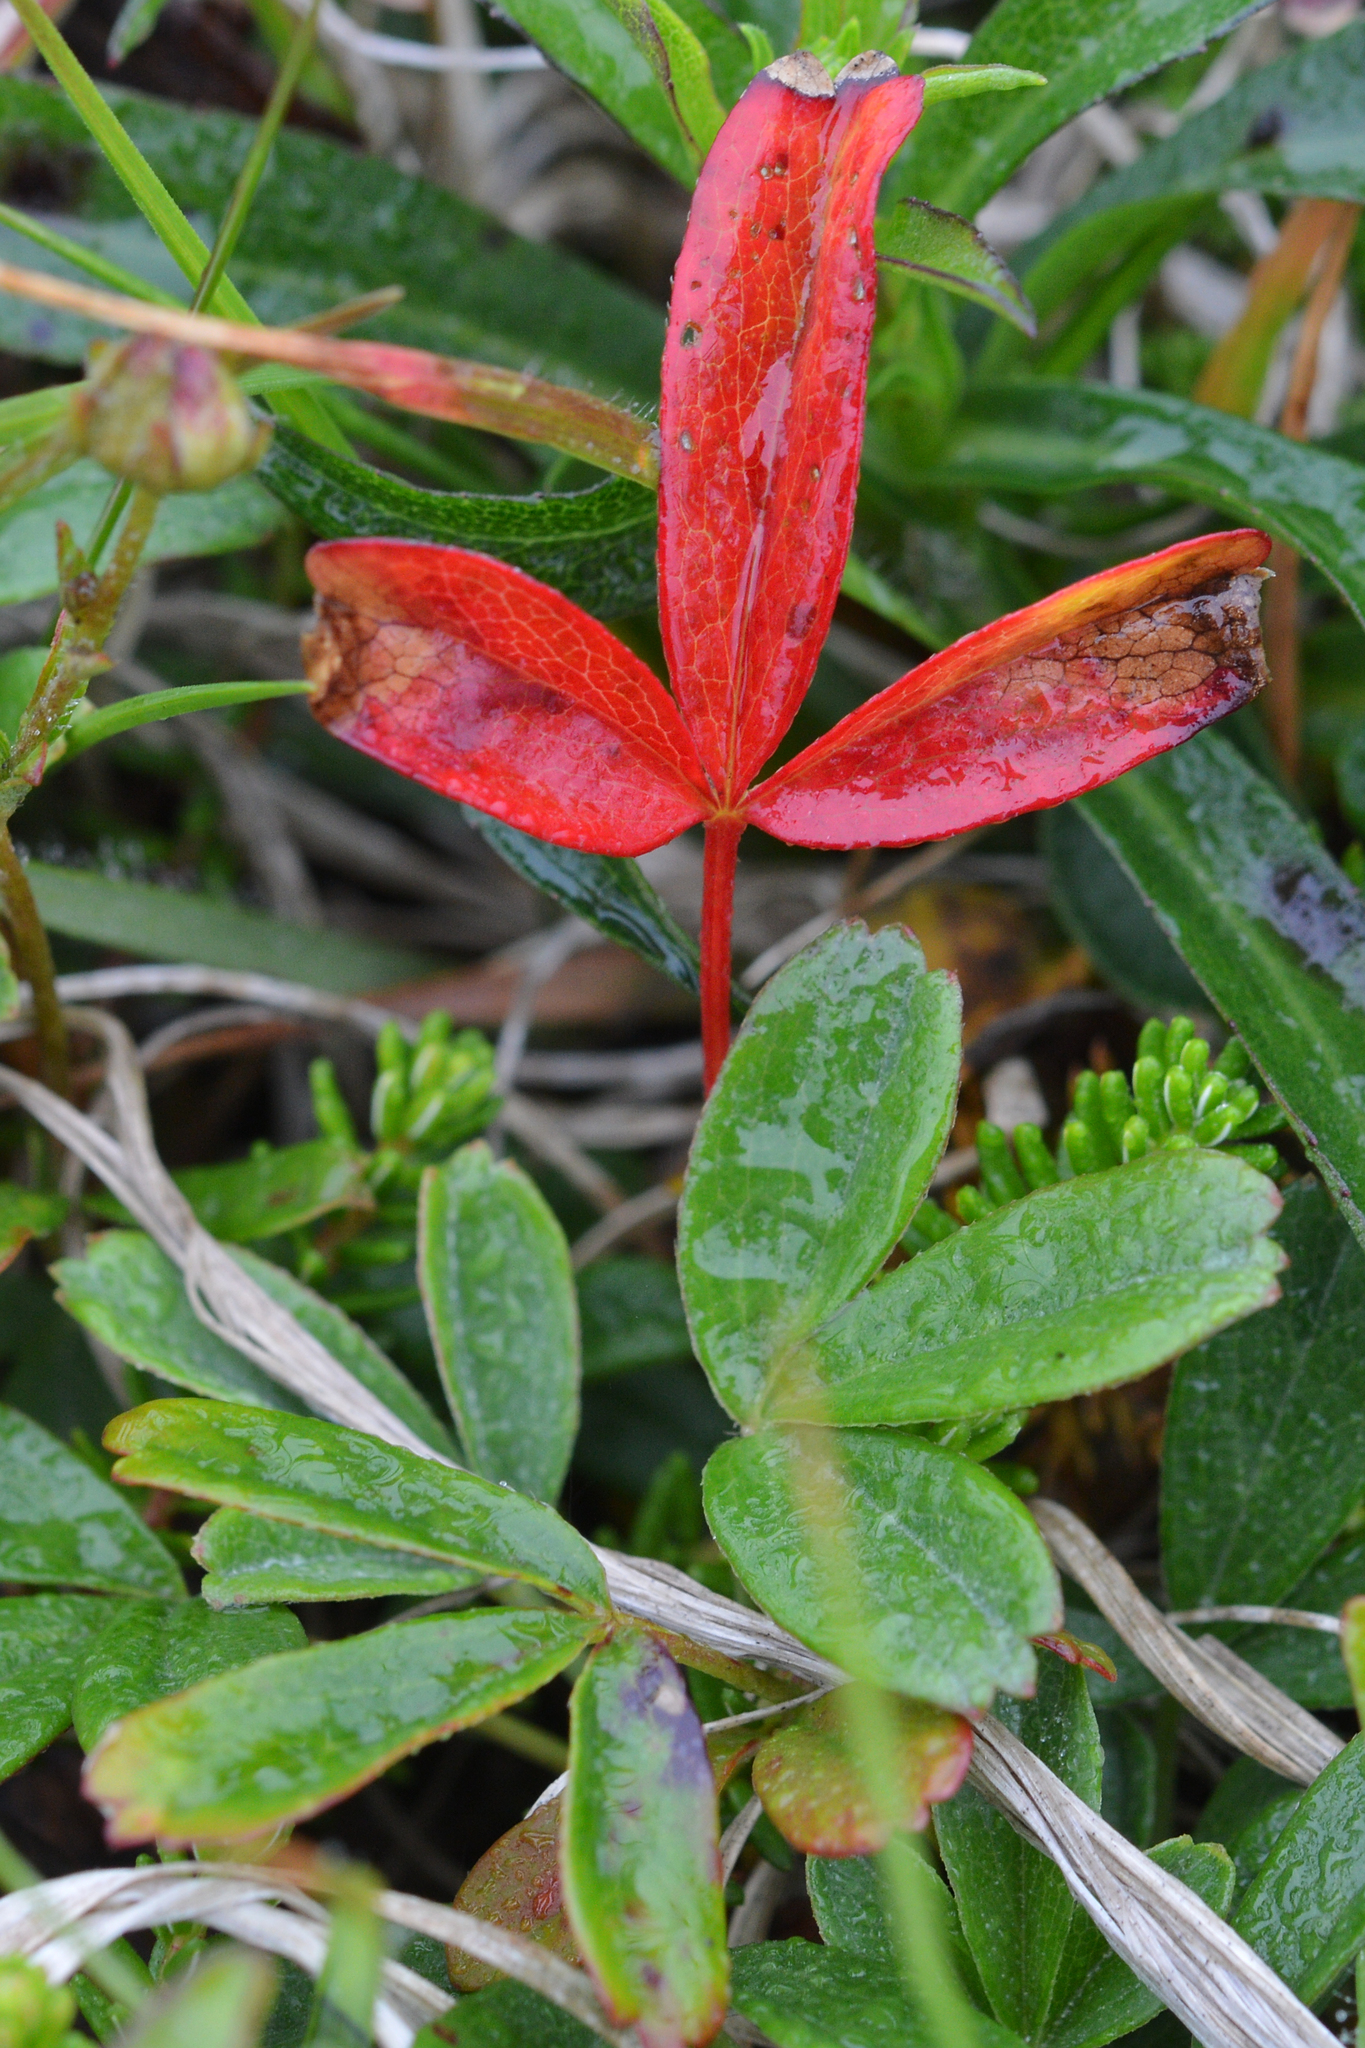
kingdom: Plantae
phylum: Tracheophyta
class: Magnoliopsida
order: Rosales
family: Rosaceae
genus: Sibbaldia
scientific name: Sibbaldia tridentata
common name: Three-toothed cinquefoil
